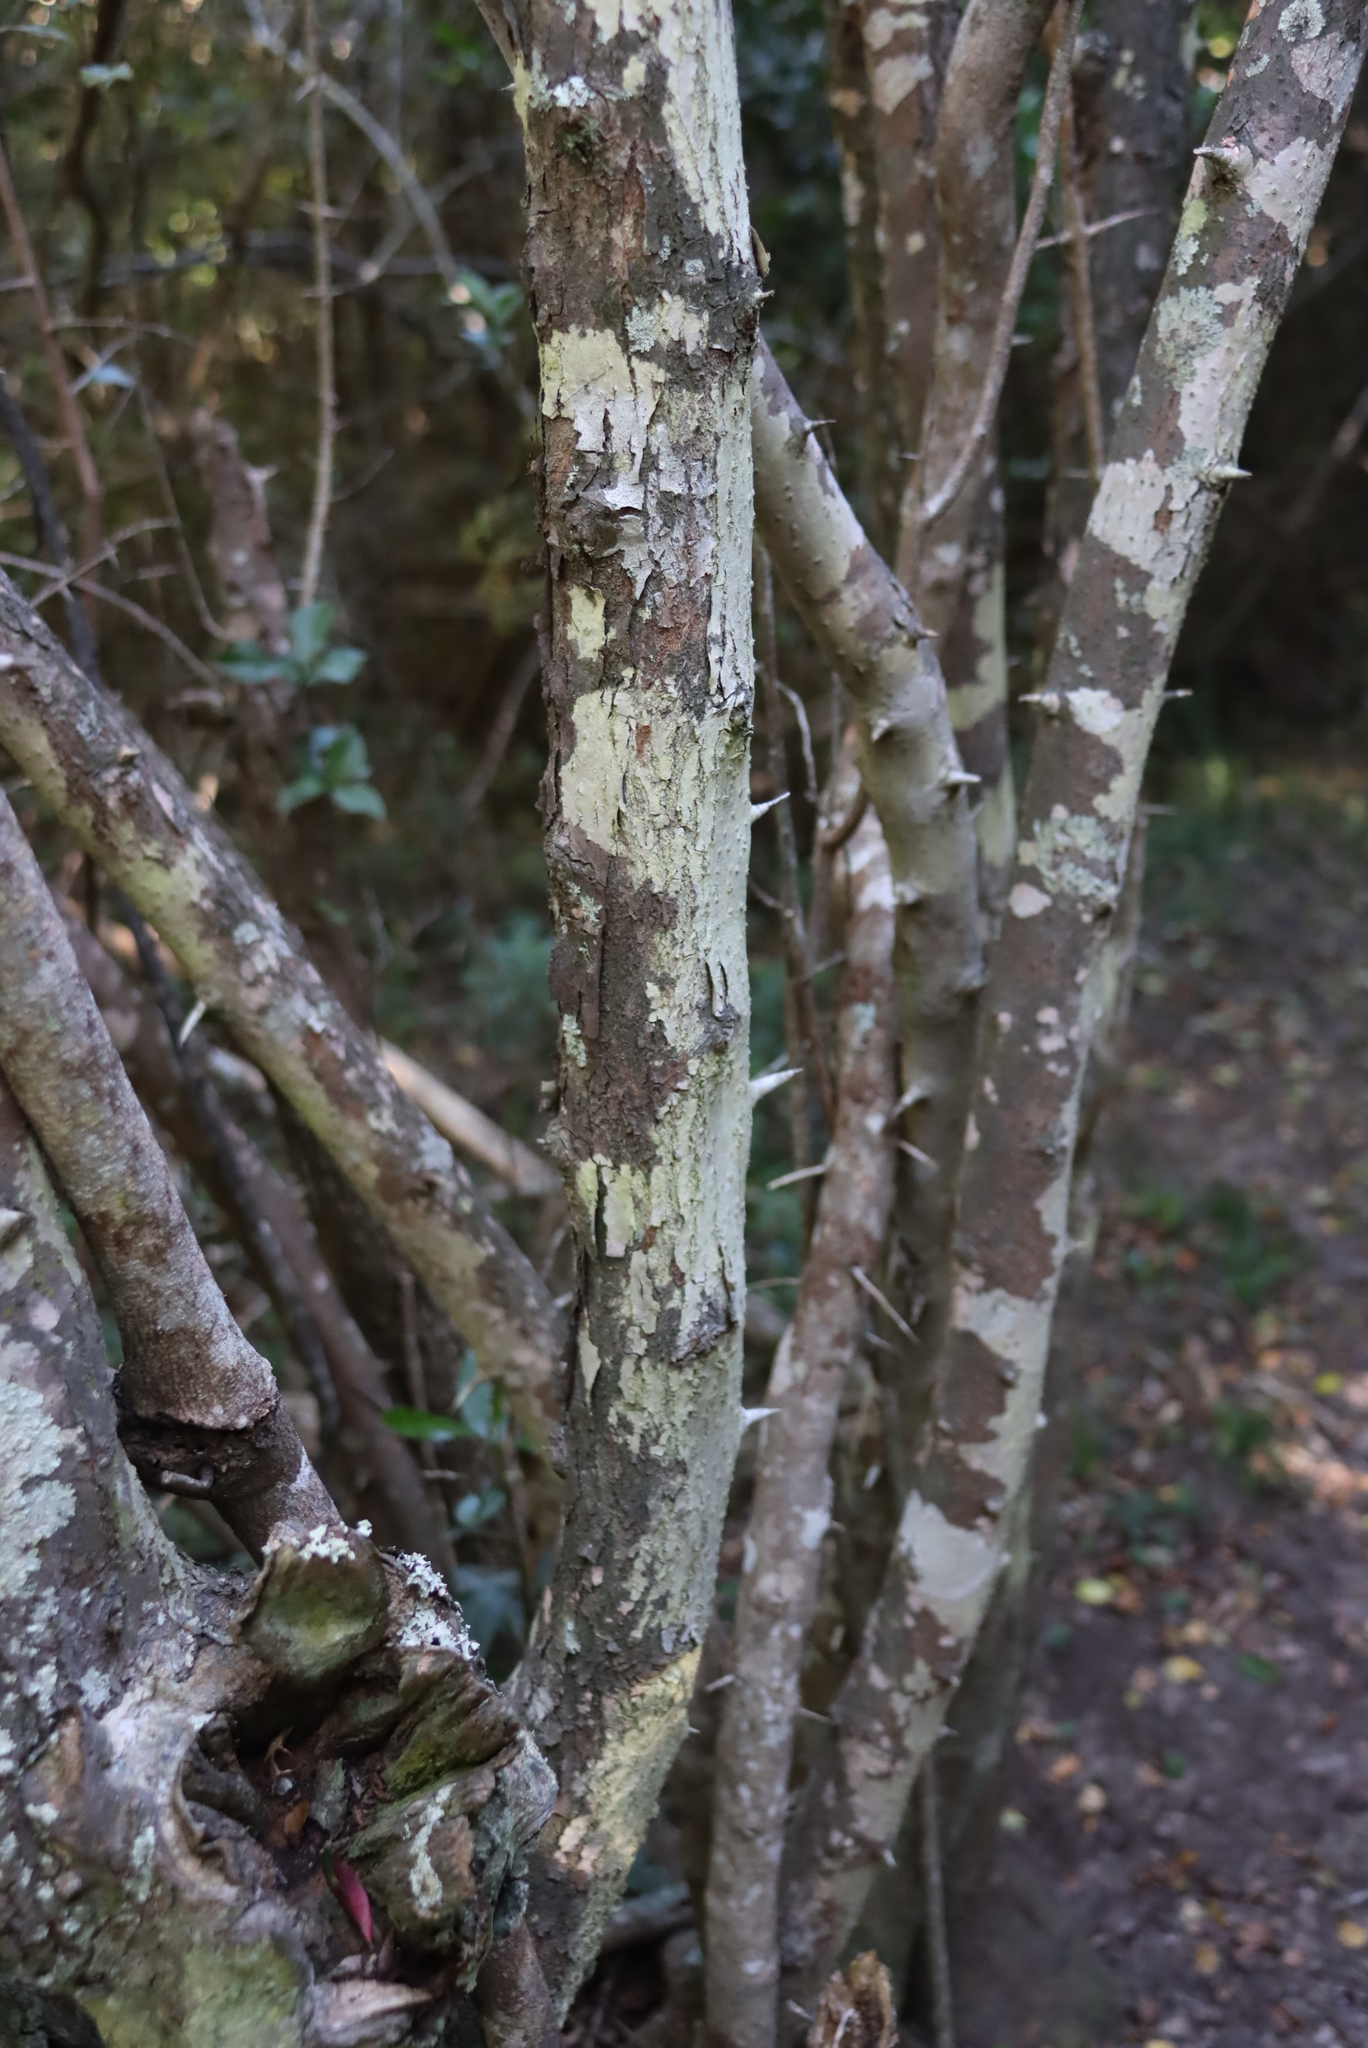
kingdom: Plantae
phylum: Tracheophyta
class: Magnoliopsida
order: Gentianales
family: Rubiaceae
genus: Canthium
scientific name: Canthium inerme
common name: Unarmed turkey-berry
